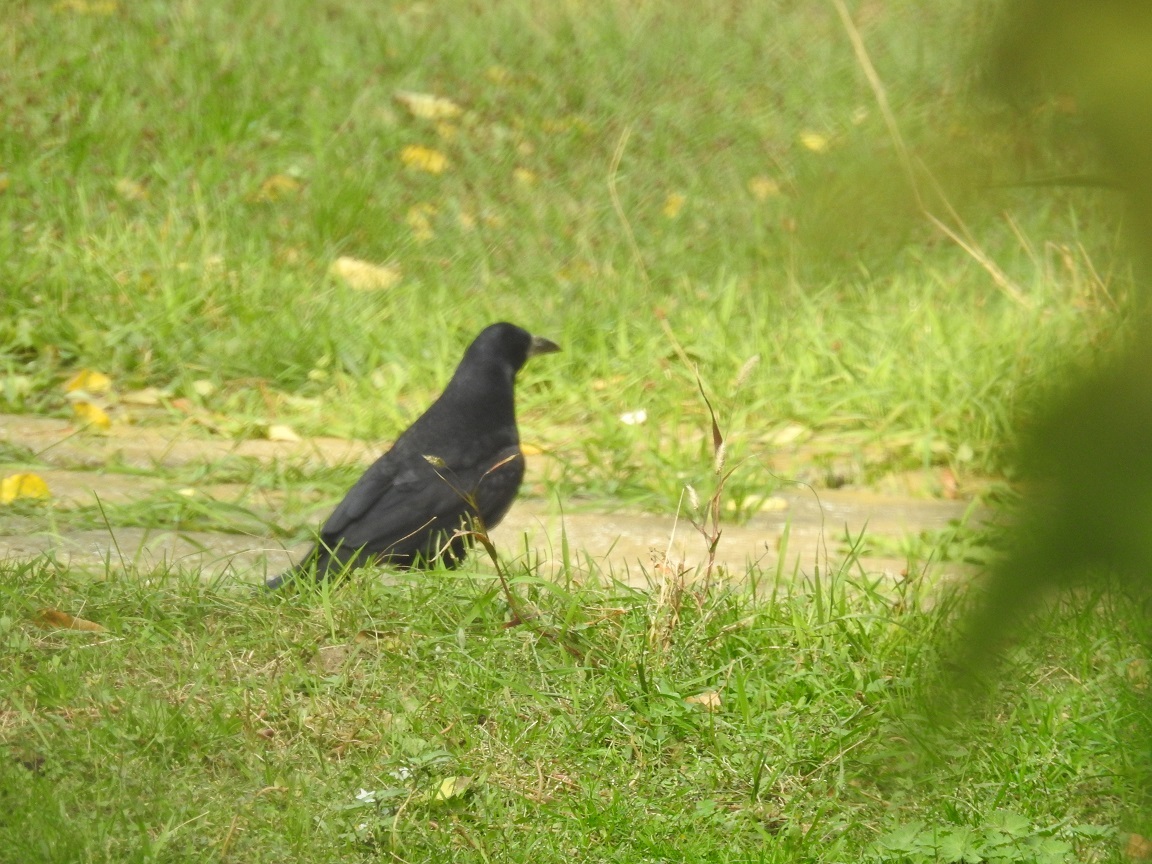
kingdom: Animalia
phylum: Chordata
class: Aves
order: Passeriformes
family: Corvidae
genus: Corvus
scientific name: Corvus frugilegus
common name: Rook
